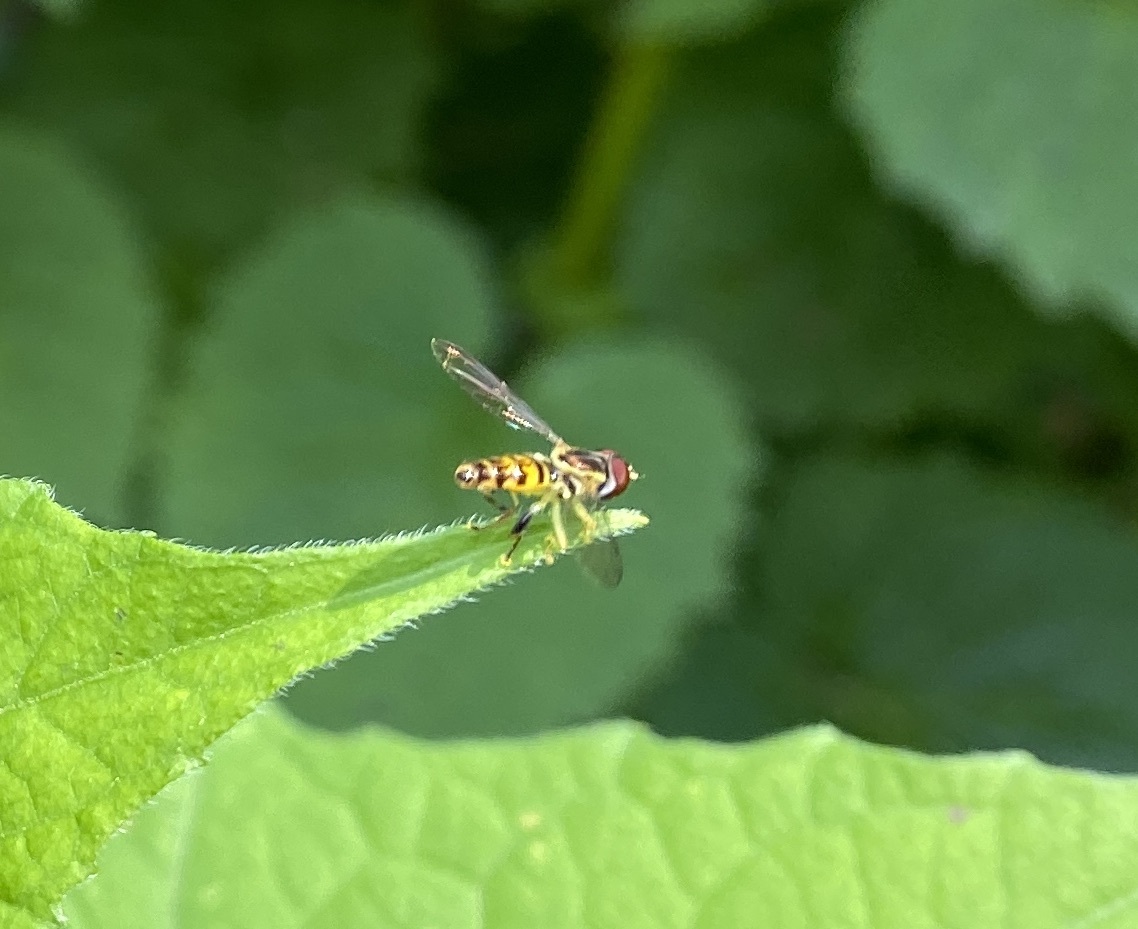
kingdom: Animalia
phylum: Arthropoda
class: Insecta
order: Diptera
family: Syrphidae
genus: Toxomerus
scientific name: Toxomerus geminatus
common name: Eastern calligrapher
